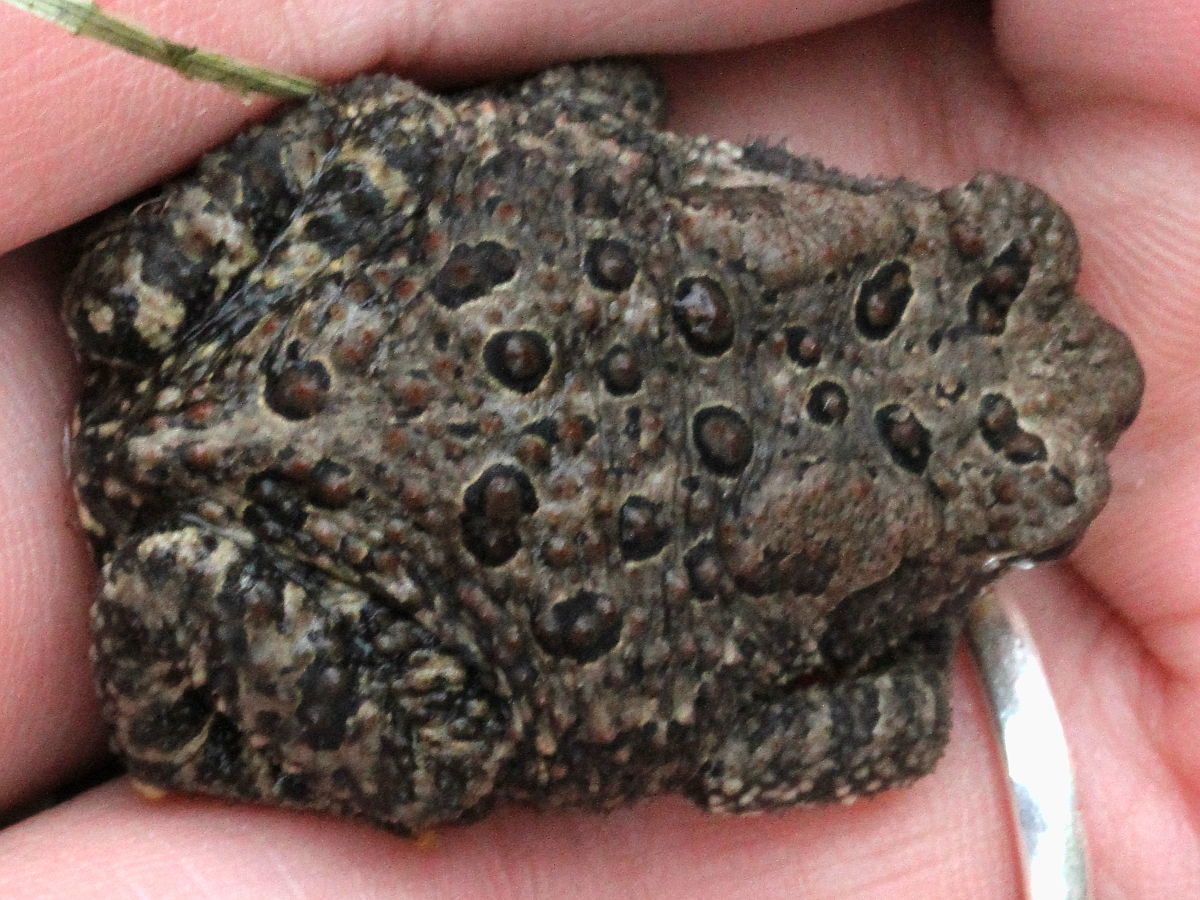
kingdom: Animalia
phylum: Chordata
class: Amphibia
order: Anura
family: Bufonidae
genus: Anaxyrus
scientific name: Anaxyrus americanus
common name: American toad
